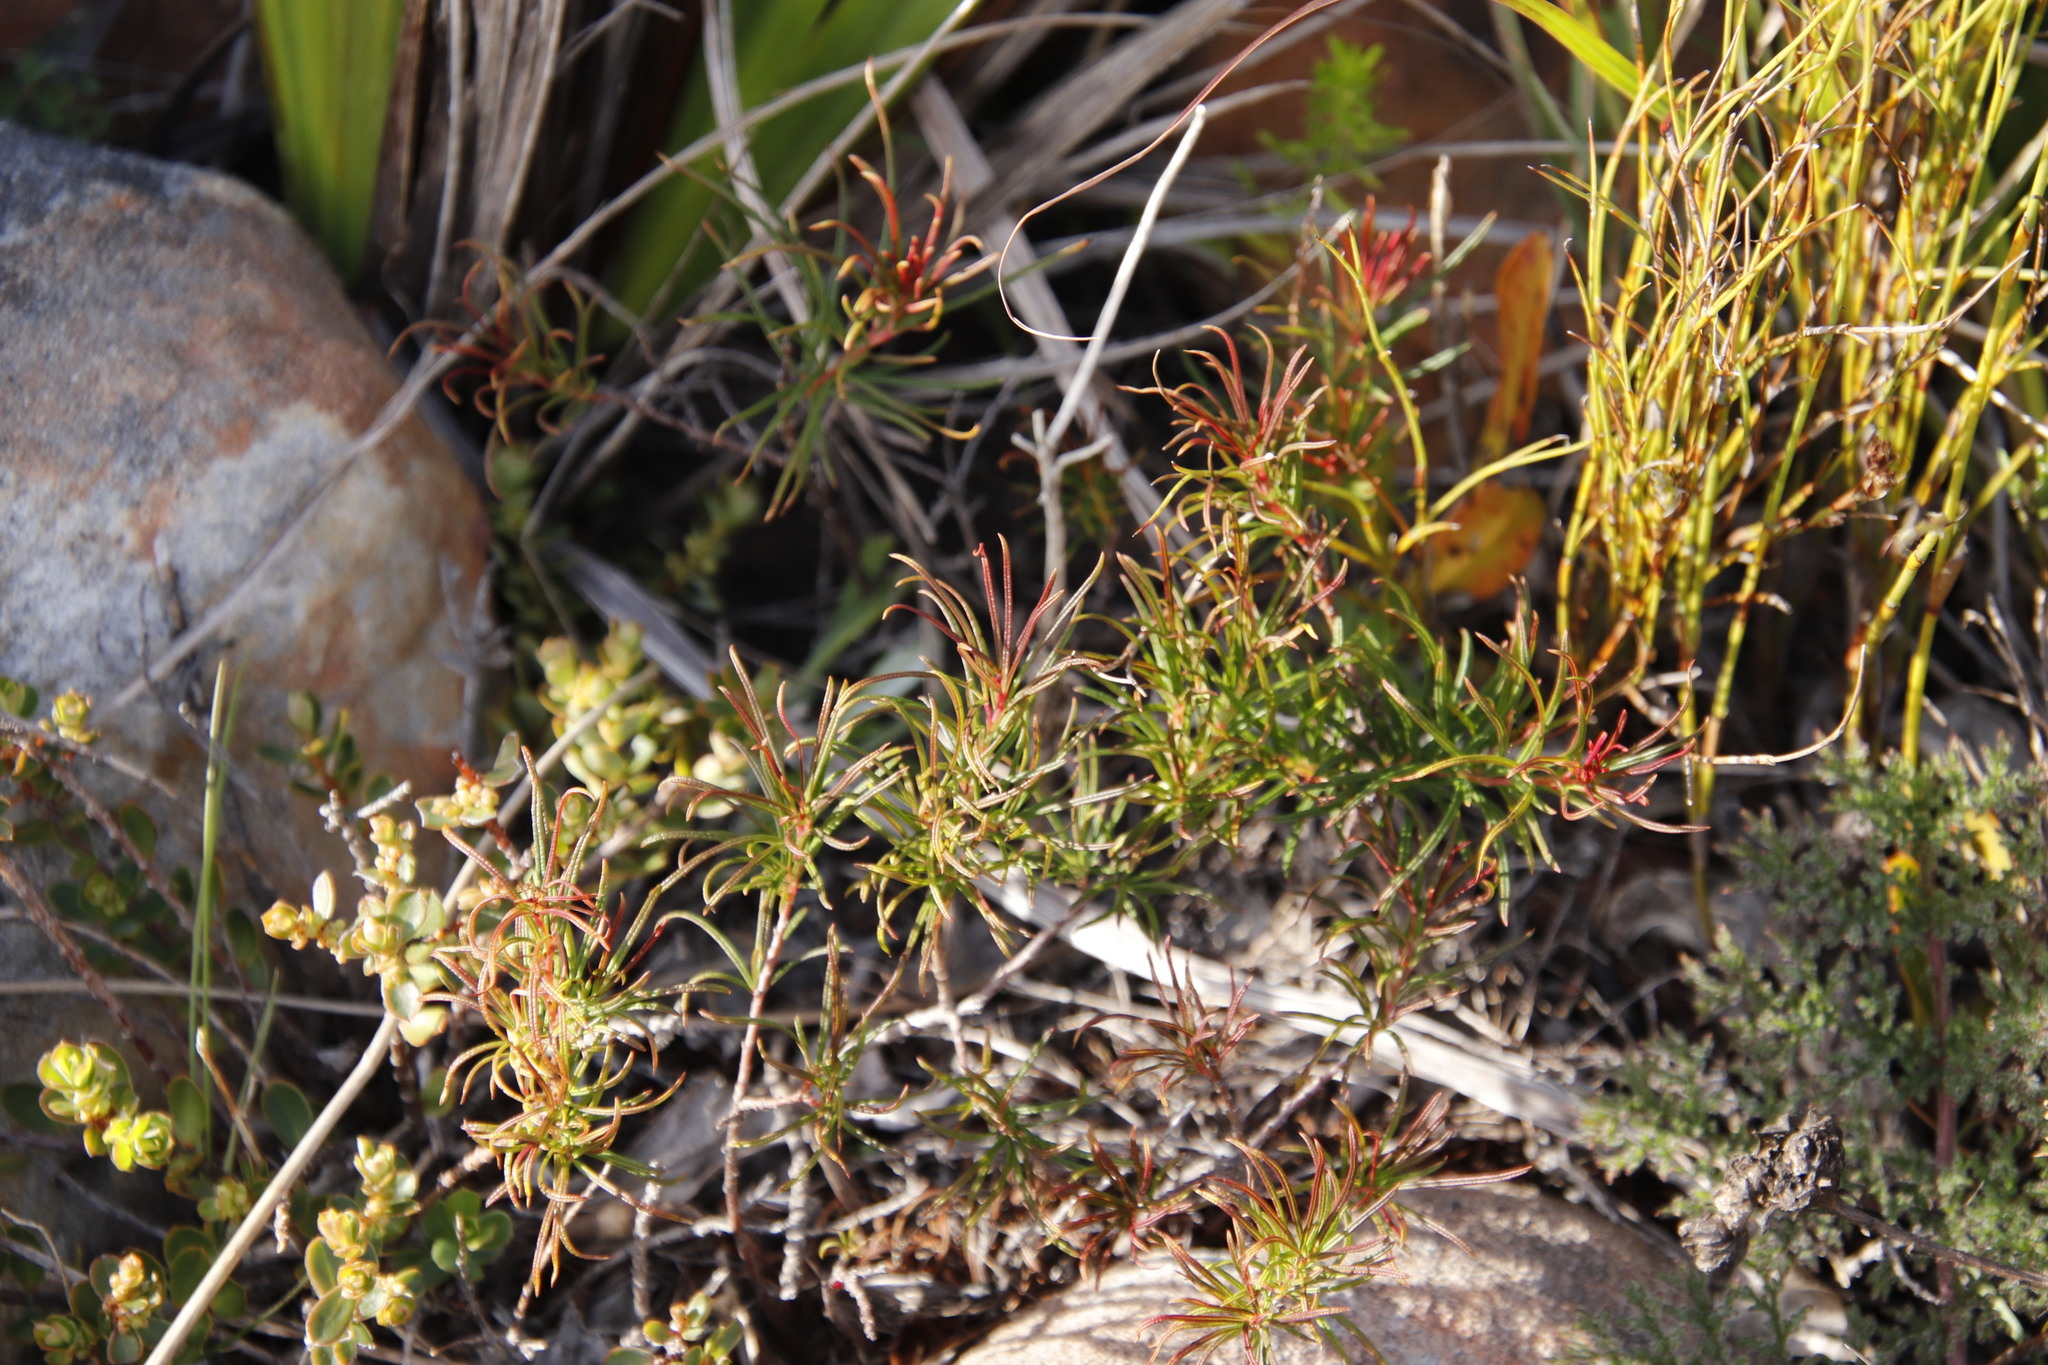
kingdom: Plantae
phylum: Tracheophyta
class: Magnoliopsida
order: Sapindales
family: Anacardiaceae
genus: Searsia
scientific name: Searsia rosmarinifolia
